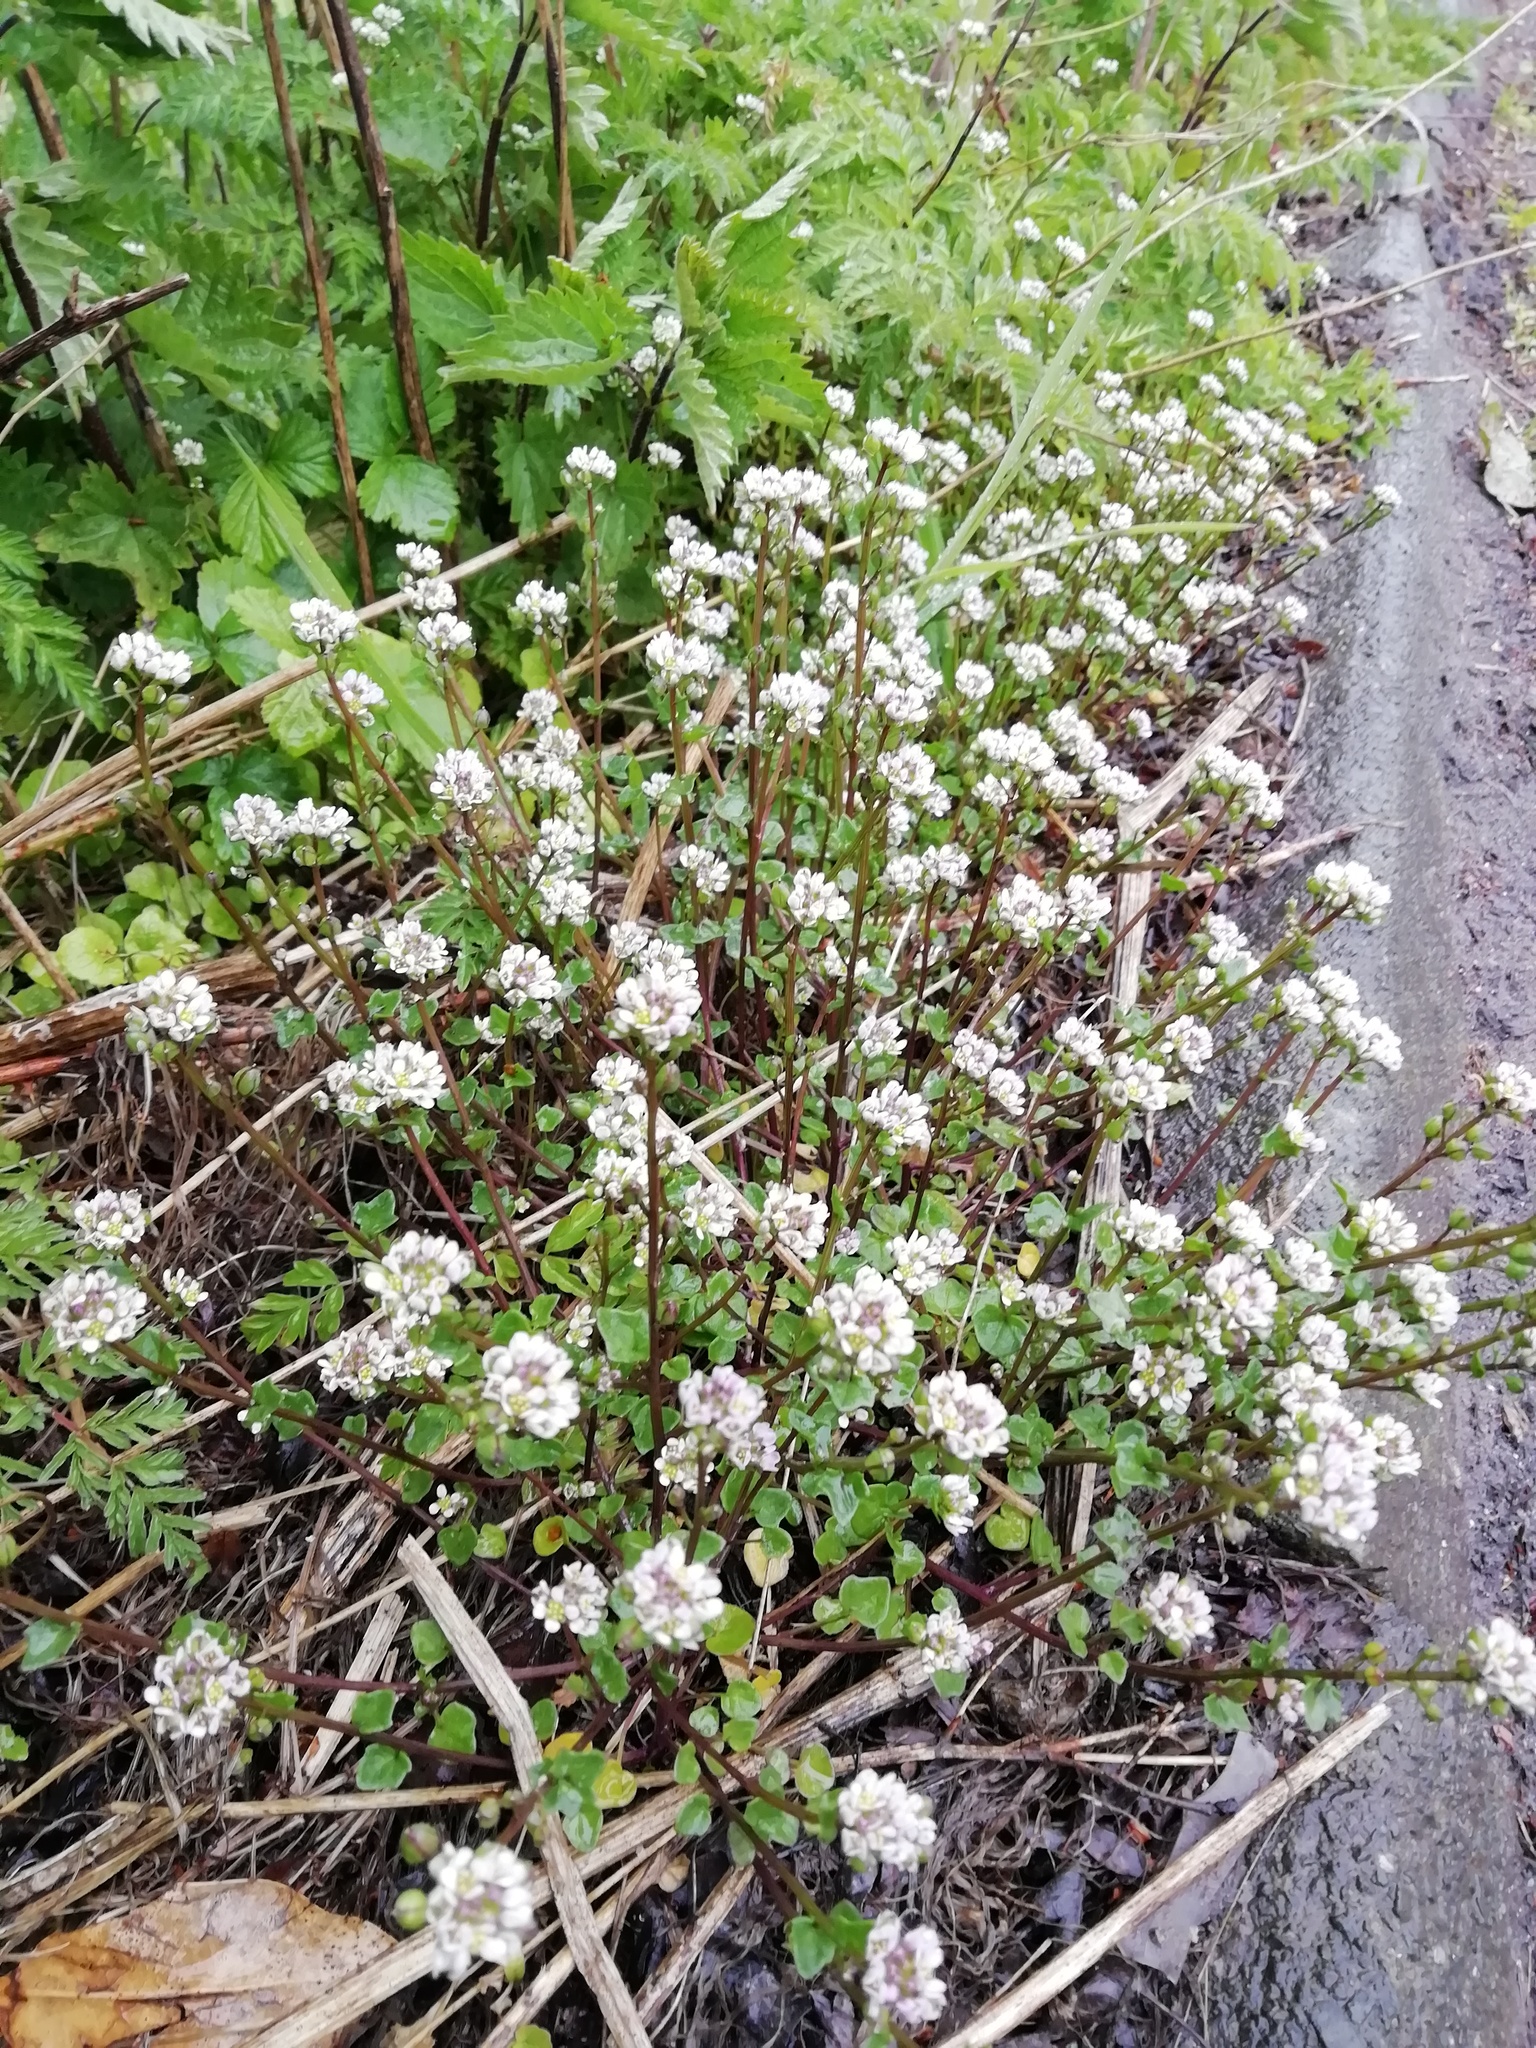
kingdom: Plantae
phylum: Tracheophyta
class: Magnoliopsida
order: Brassicales
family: Brassicaceae
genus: Cochlearia
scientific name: Cochlearia danica
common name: Early scurvygrass
